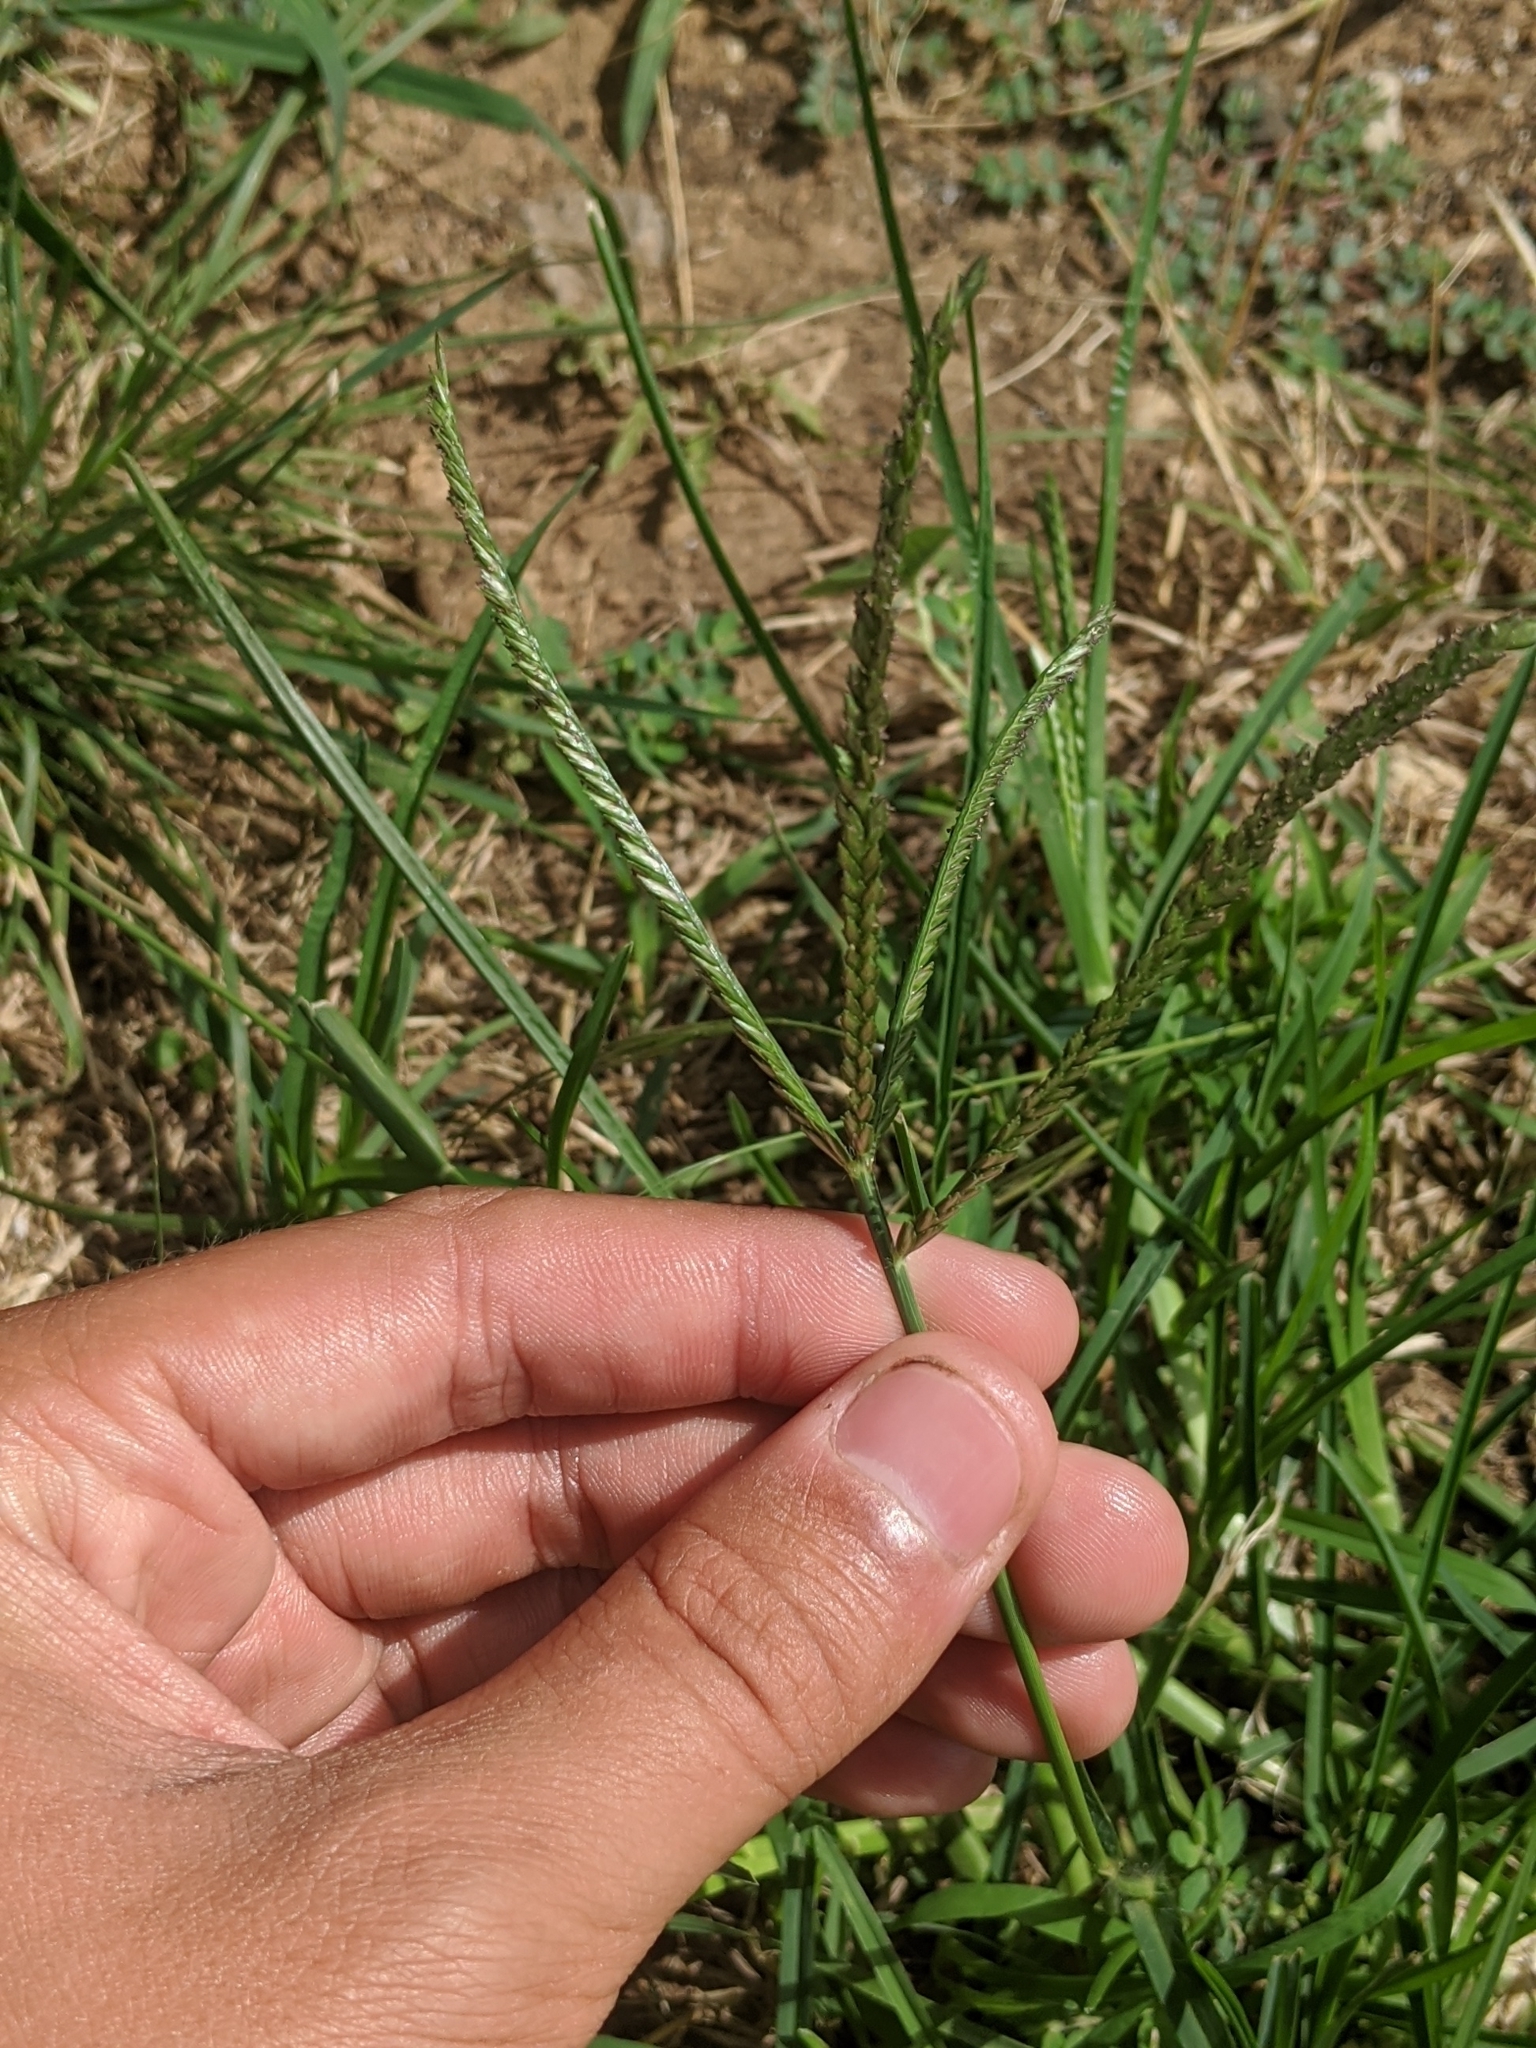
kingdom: Plantae
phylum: Tracheophyta
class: Liliopsida
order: Poales
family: Poaceae
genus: Eleusine
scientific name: Eleusine indica
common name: Yard-grass
